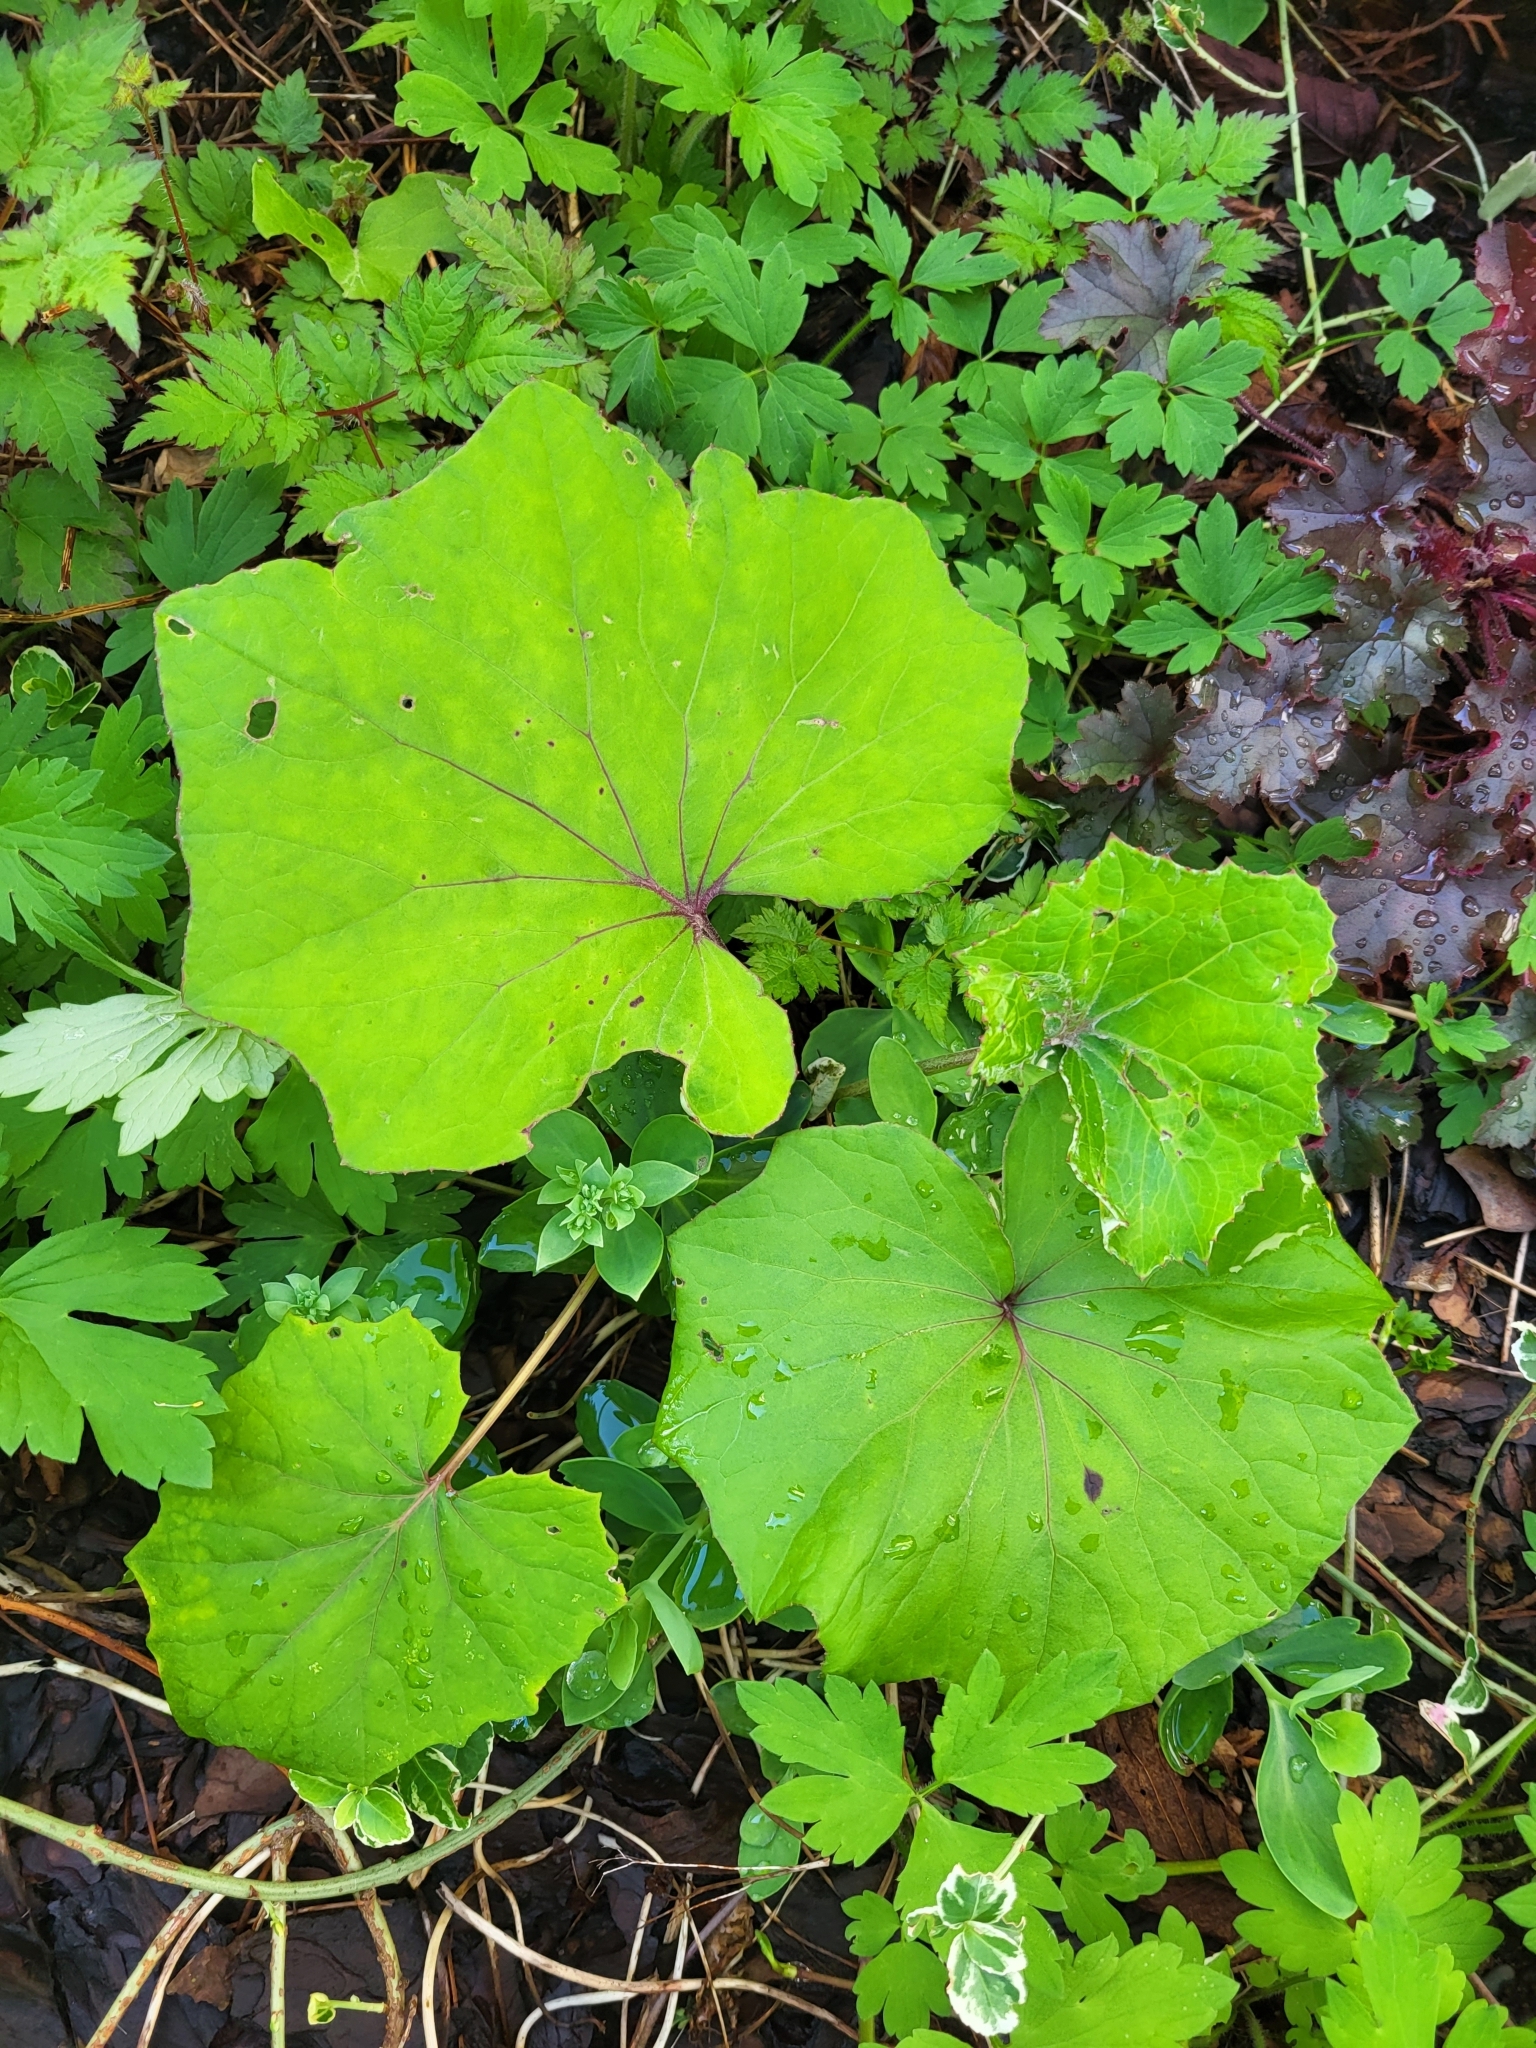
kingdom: Plantae
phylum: Tracheophyta
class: Magnoliopsida
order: Asterales
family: Asteraceae
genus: Tussilago
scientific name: Tussilago farfara
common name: Coltsfoot
